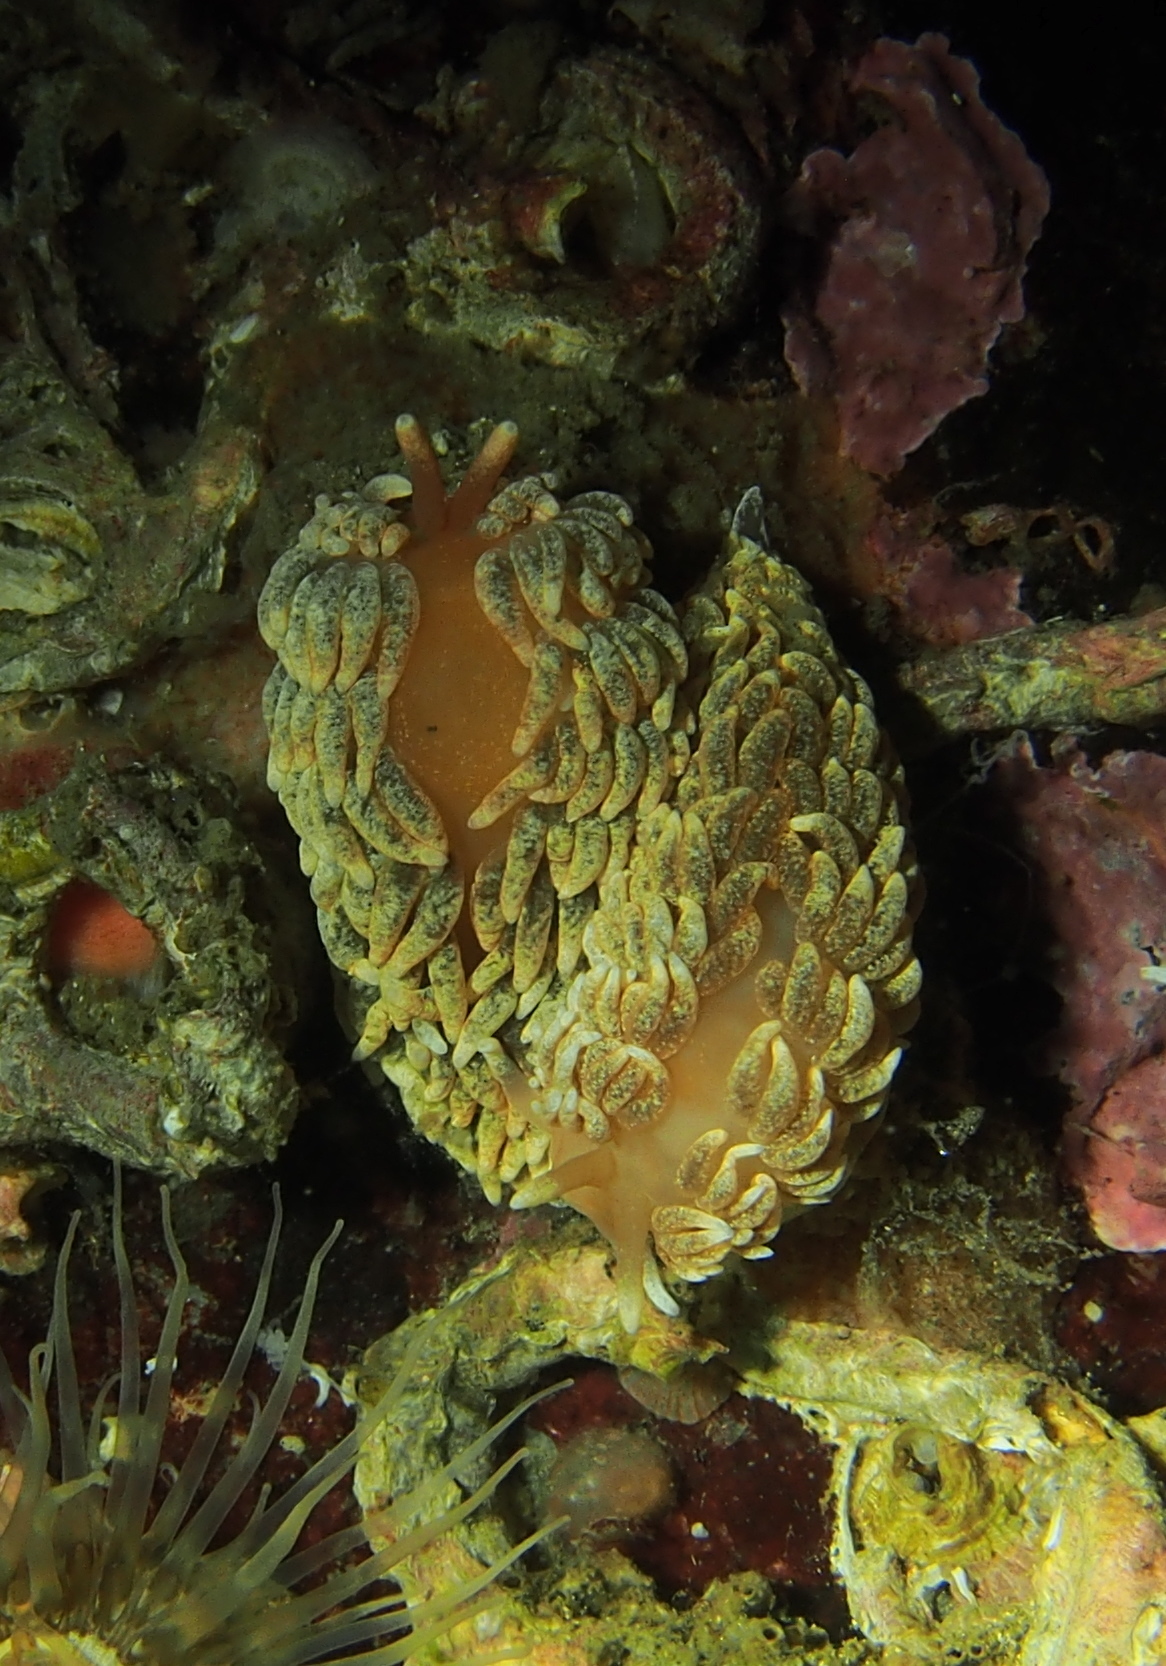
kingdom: Animalia
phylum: Mollusca
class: Gastropoda
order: Nudibranchia
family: Aeolidiidae
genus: Aeolidiella
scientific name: Aeolidiella glauca
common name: Orange-brown aeolid
